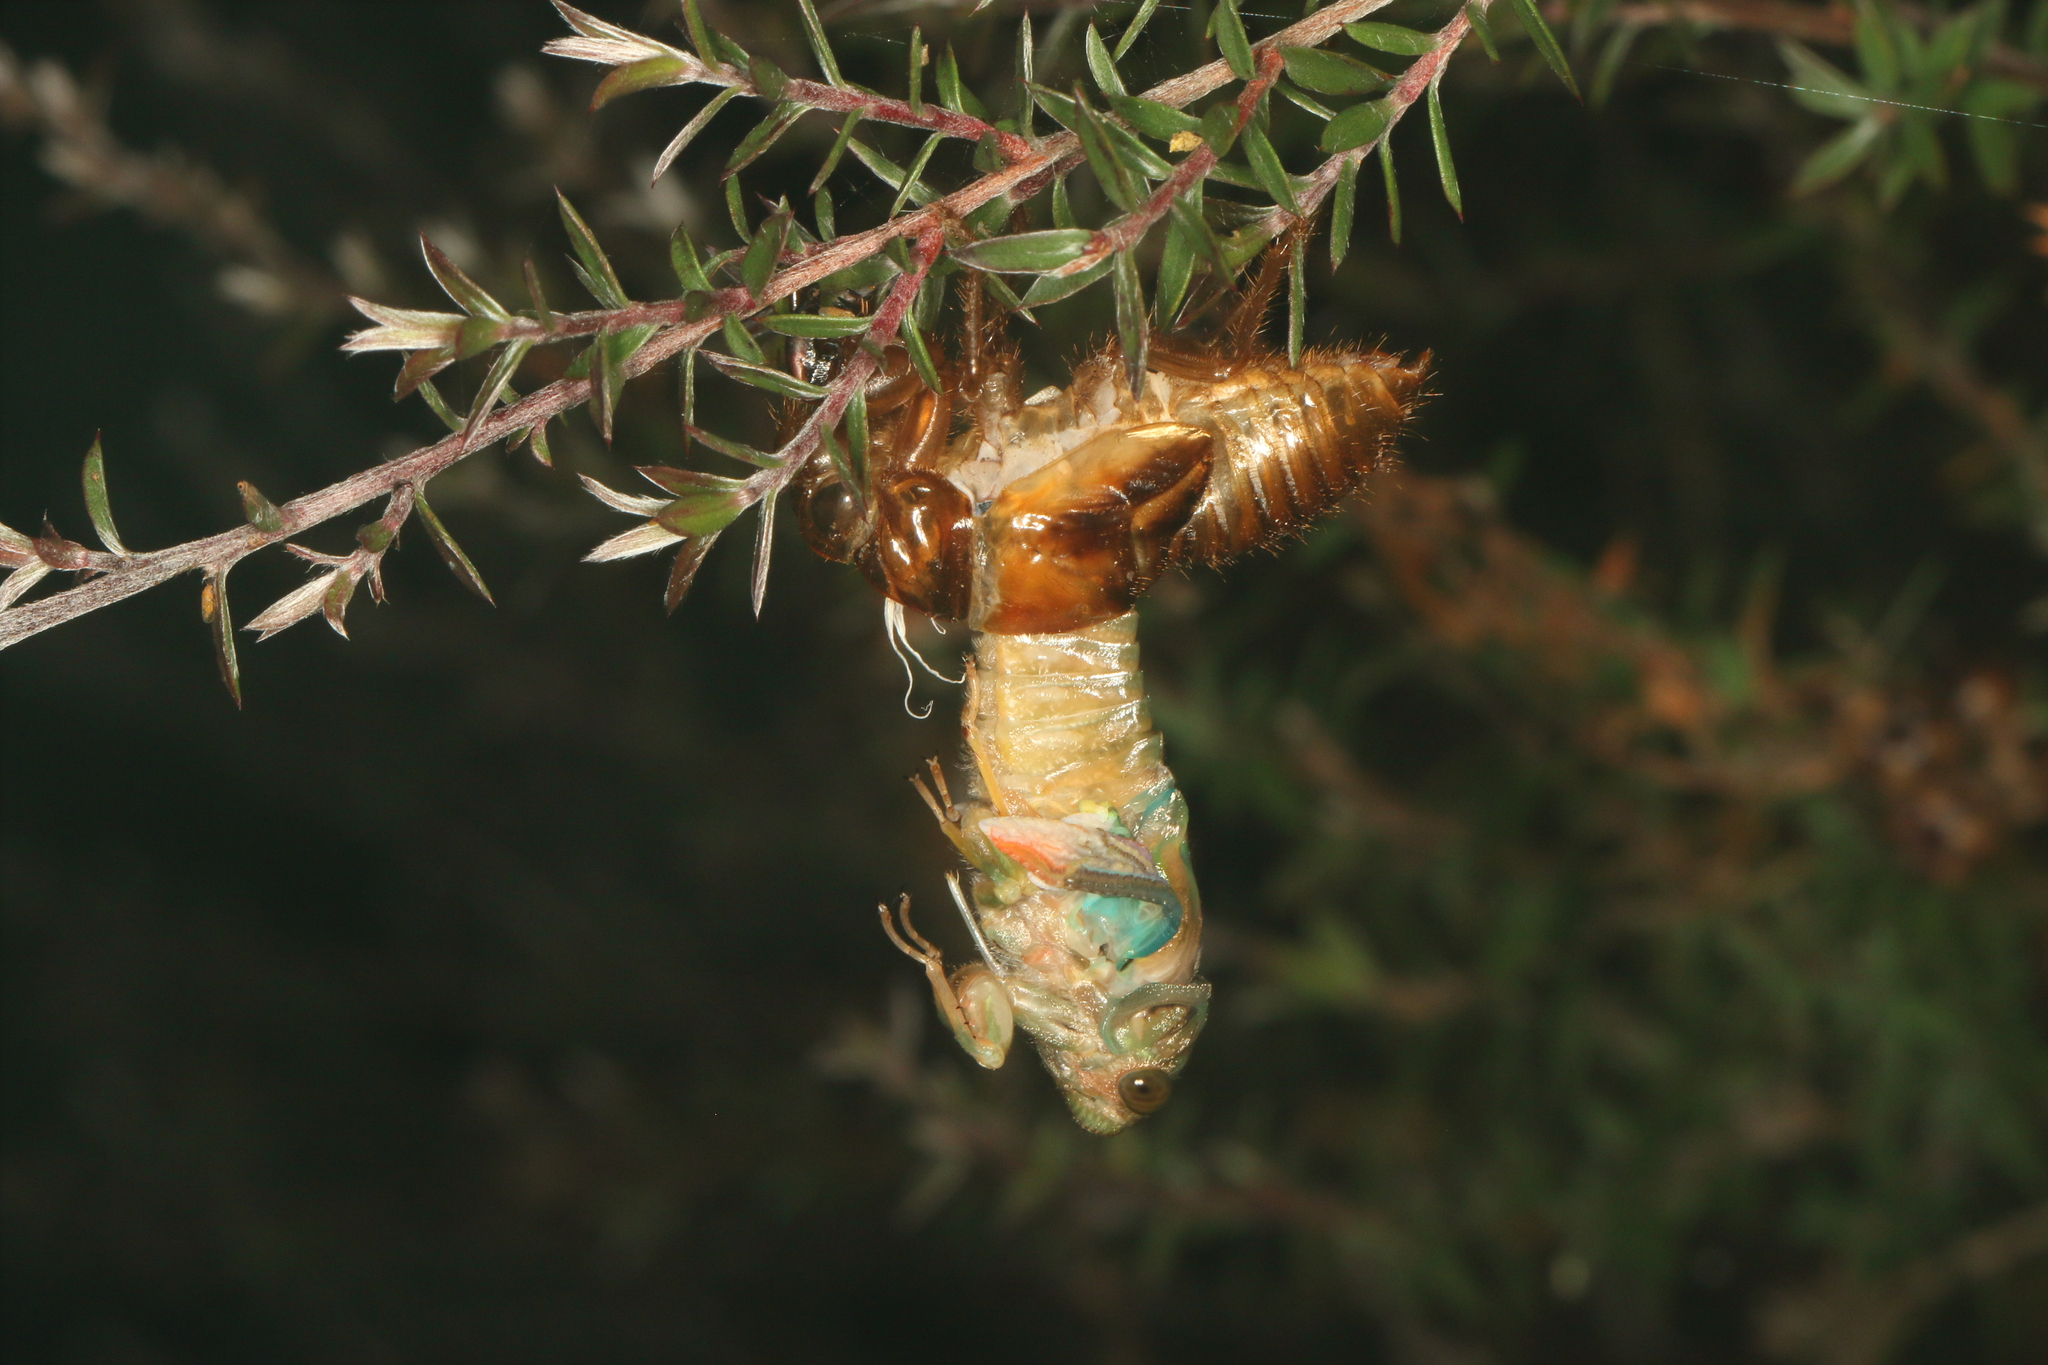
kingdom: Animalia
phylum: Arthropoda
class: Insecta
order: Hemiptera
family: Cicadidae
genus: Amphipsalta
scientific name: Amphipsalta zelandica
